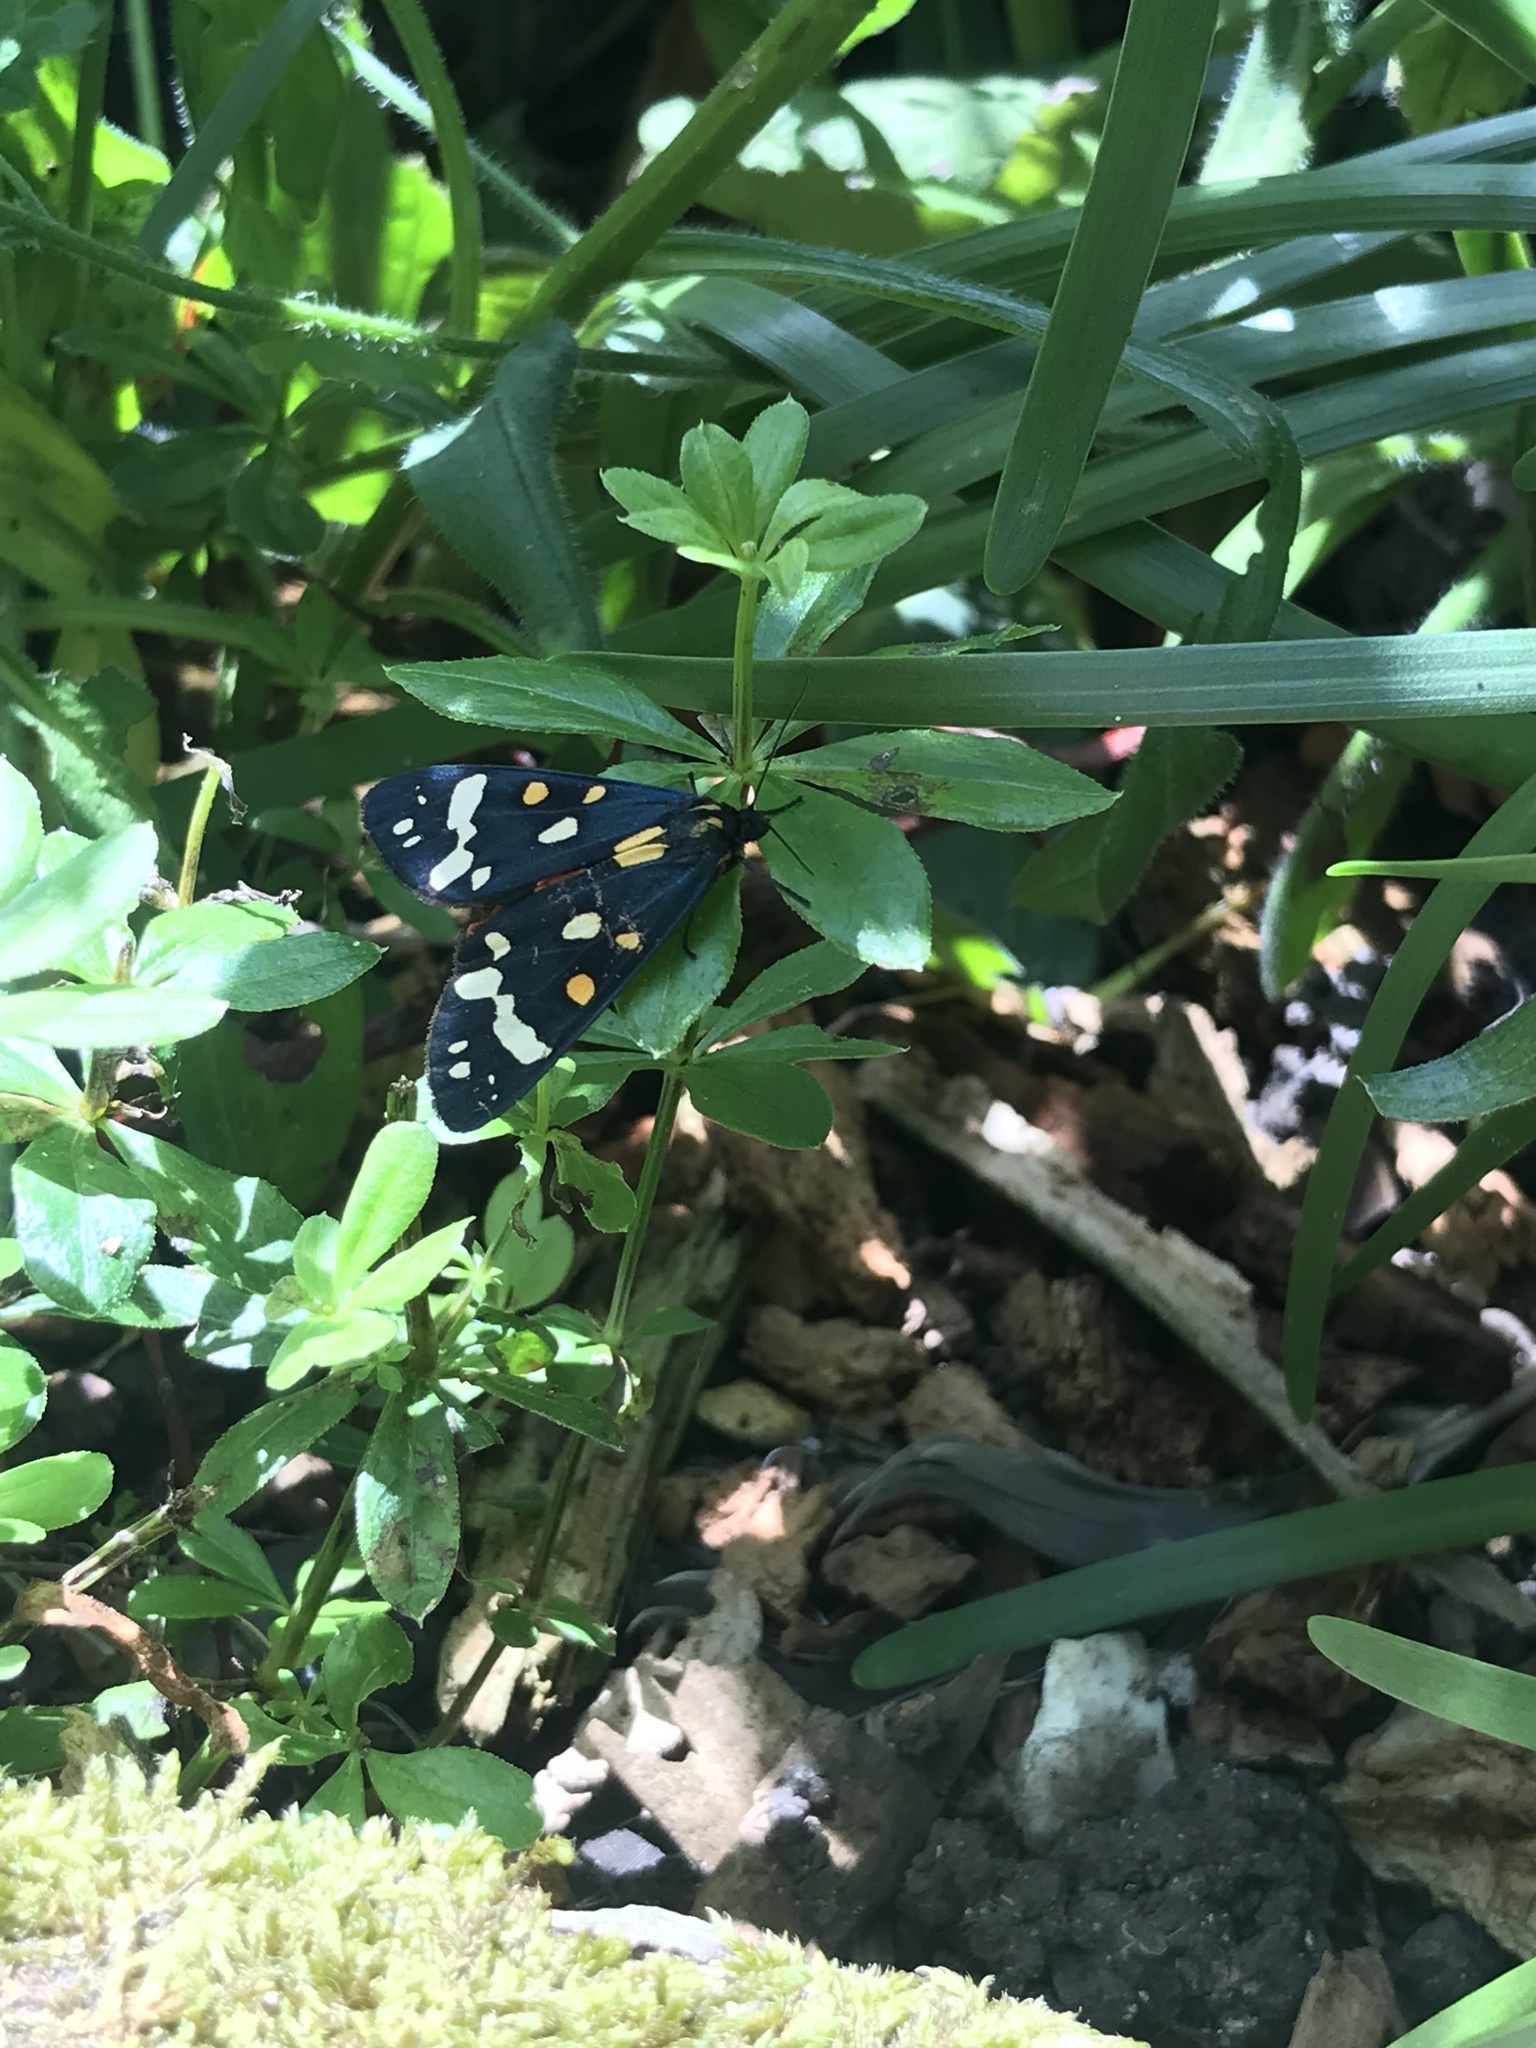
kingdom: Animalia
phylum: Arthropoda
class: Insecta
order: Lepidoptera
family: Erebidae
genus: Callimorpha
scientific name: Callimorpha dominula
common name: Scarlet tiger
